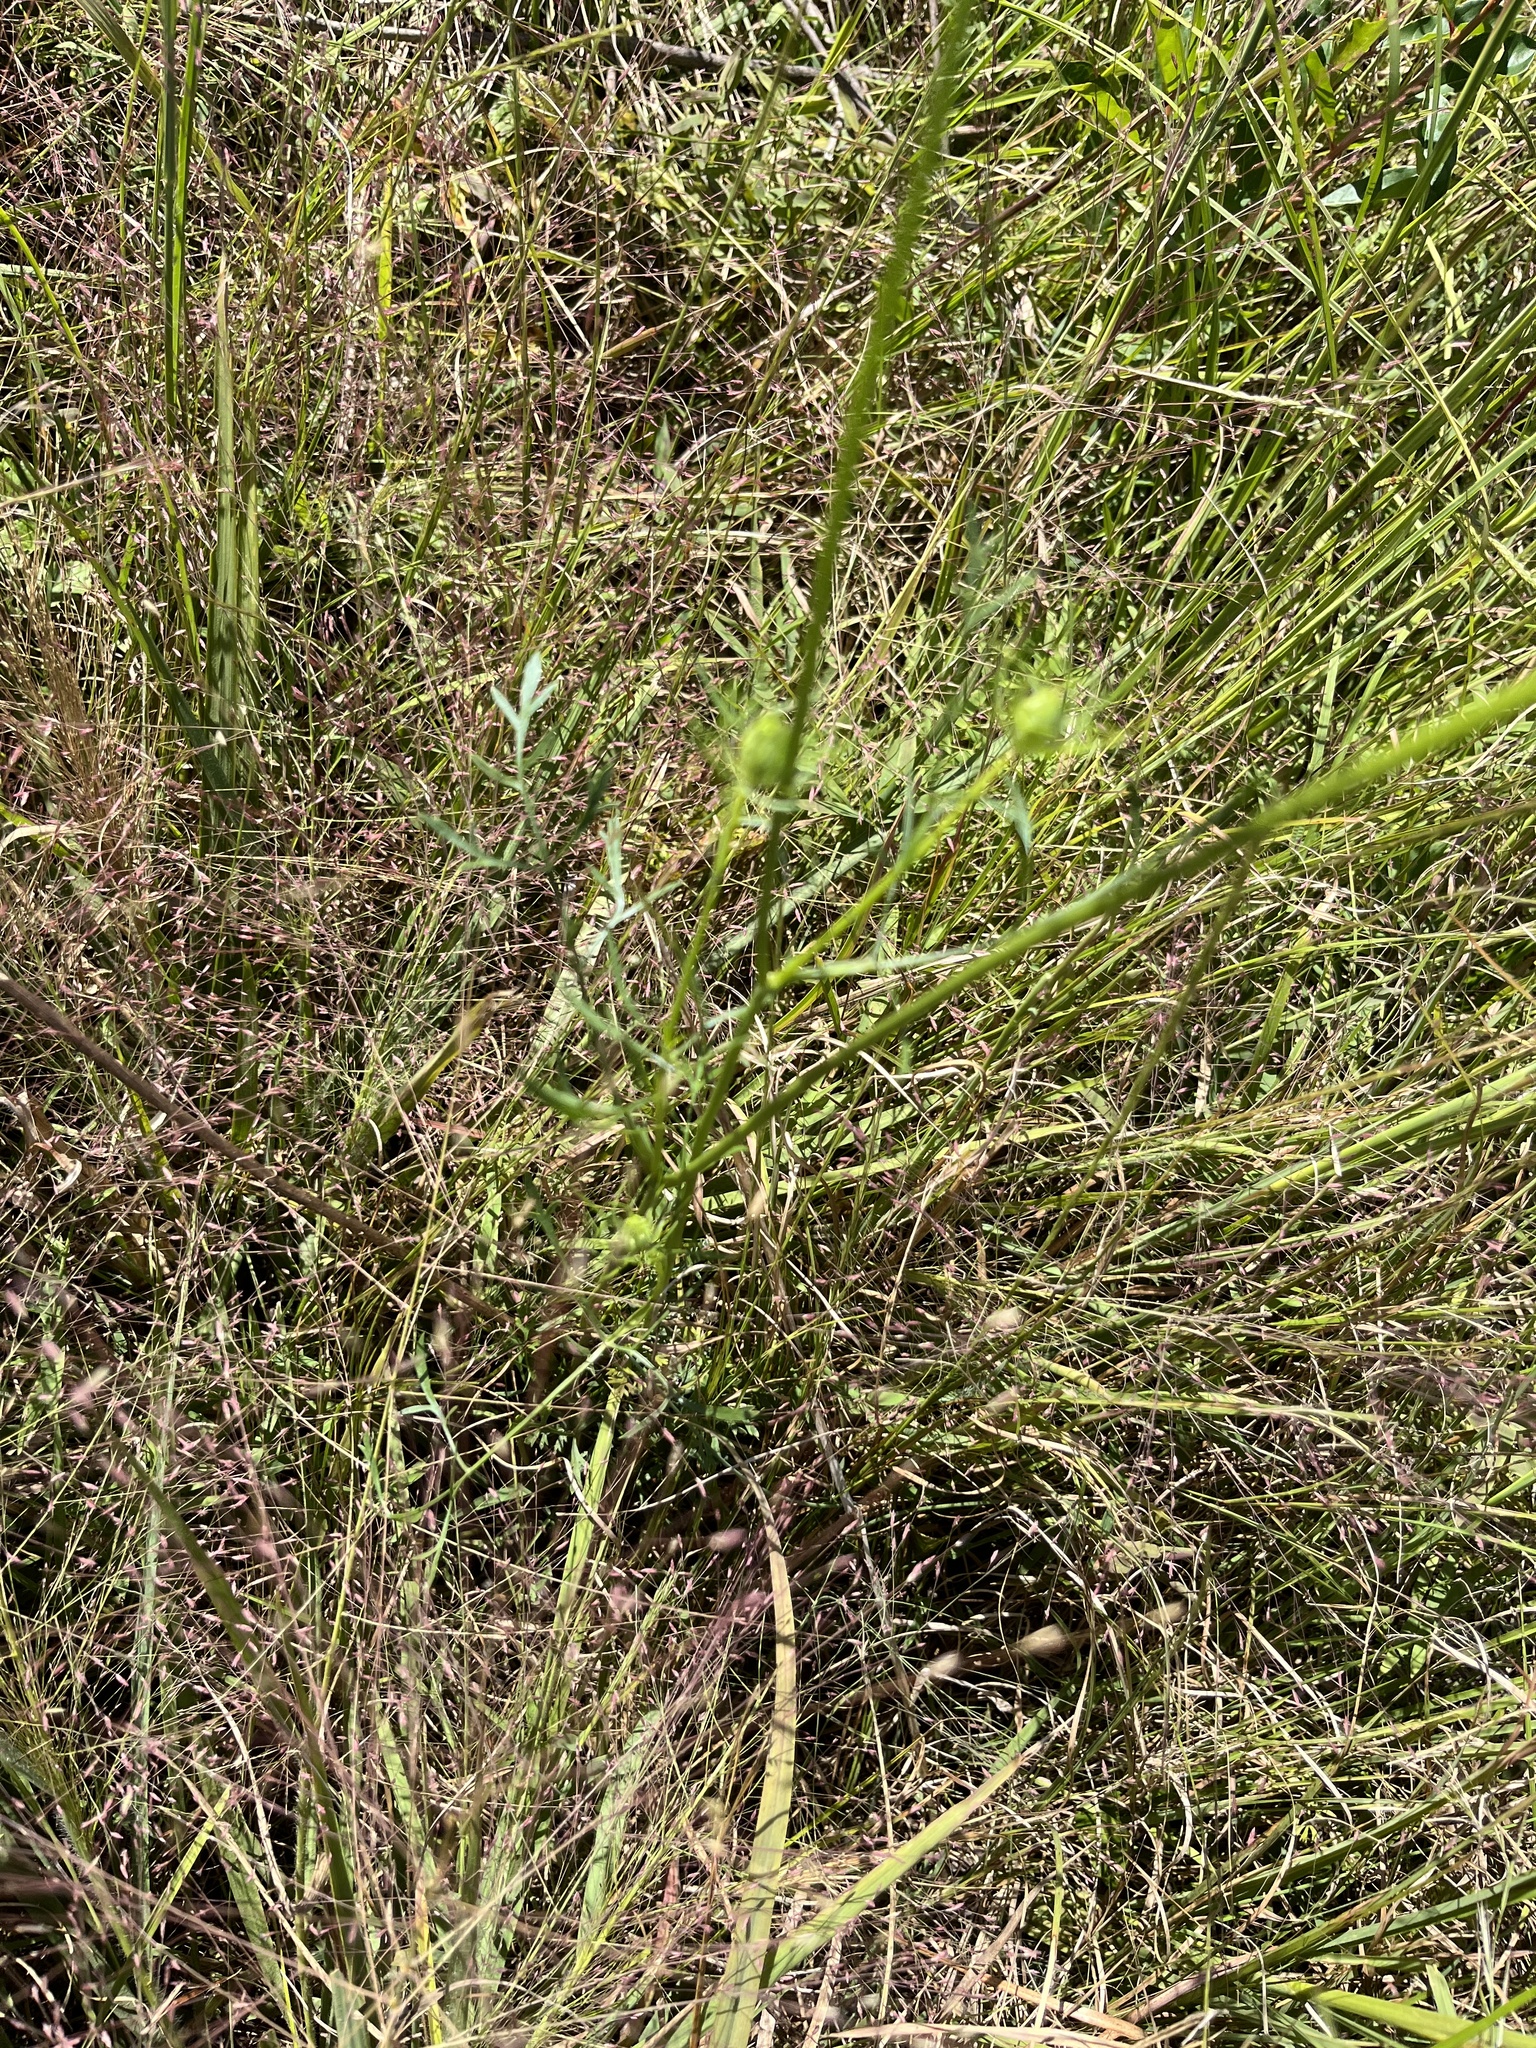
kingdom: Plantae
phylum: Tracheophyta
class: Magnoliopsida
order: Apiales
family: Apiaceae
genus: Daucus
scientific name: Daucus carota
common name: Wild carrot
